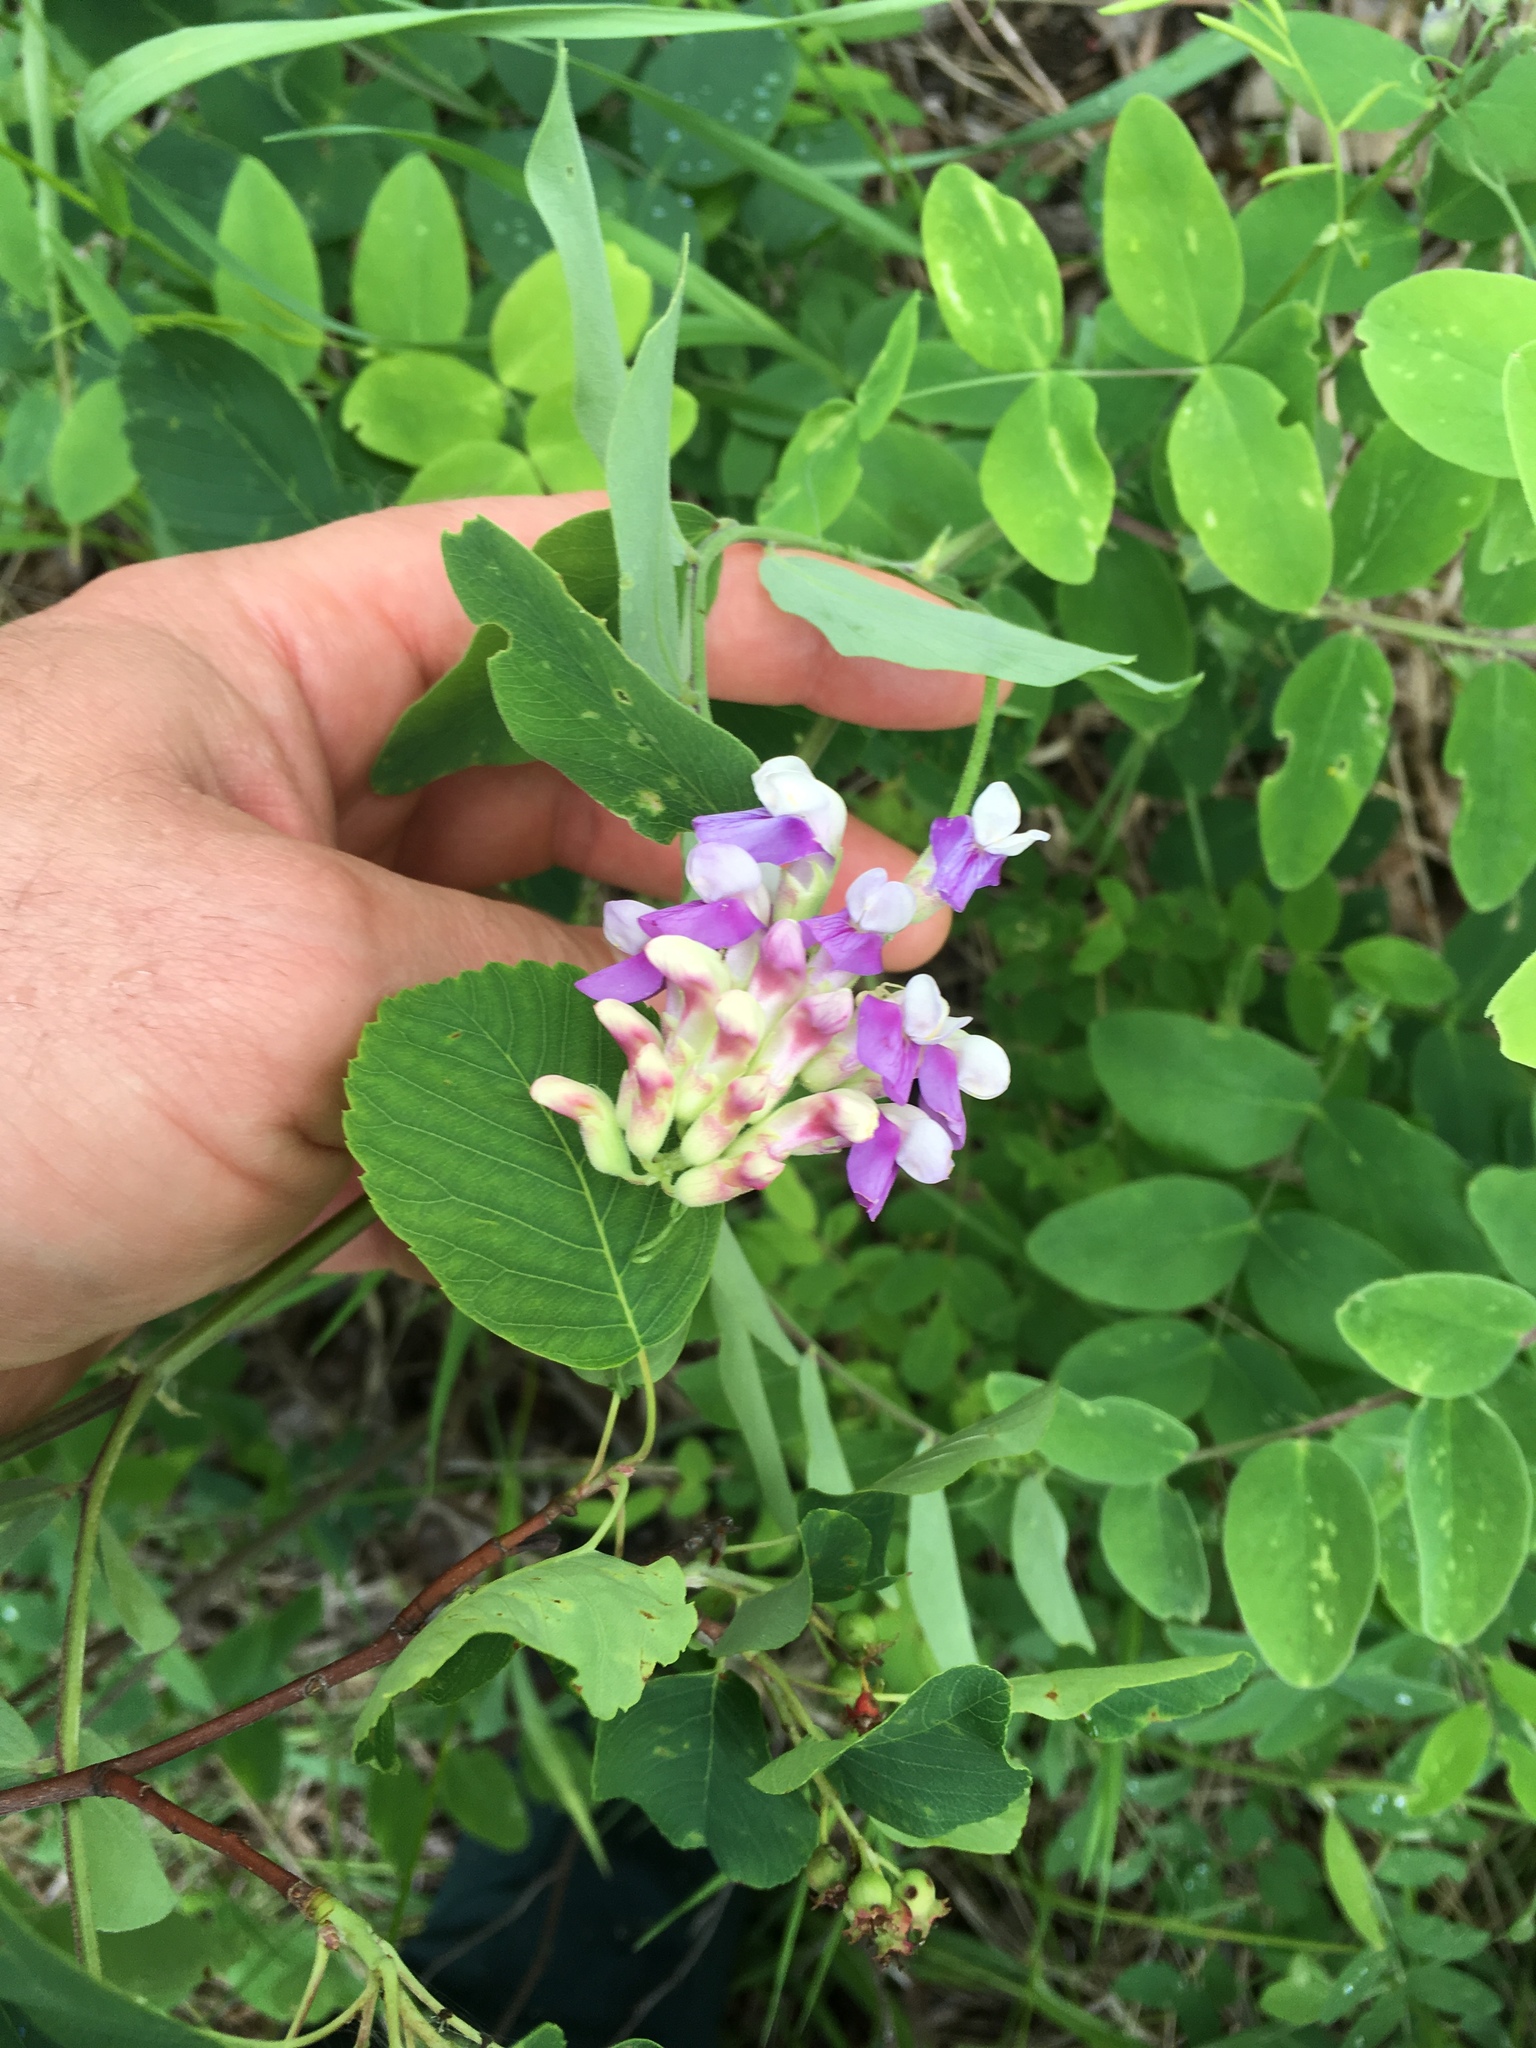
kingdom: Plantae
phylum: Tracheophyta
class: Magnoliopsida
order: Fabales
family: Fabaceae
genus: Lathyrus
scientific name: Lathyrus venosus
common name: Forest-pea
